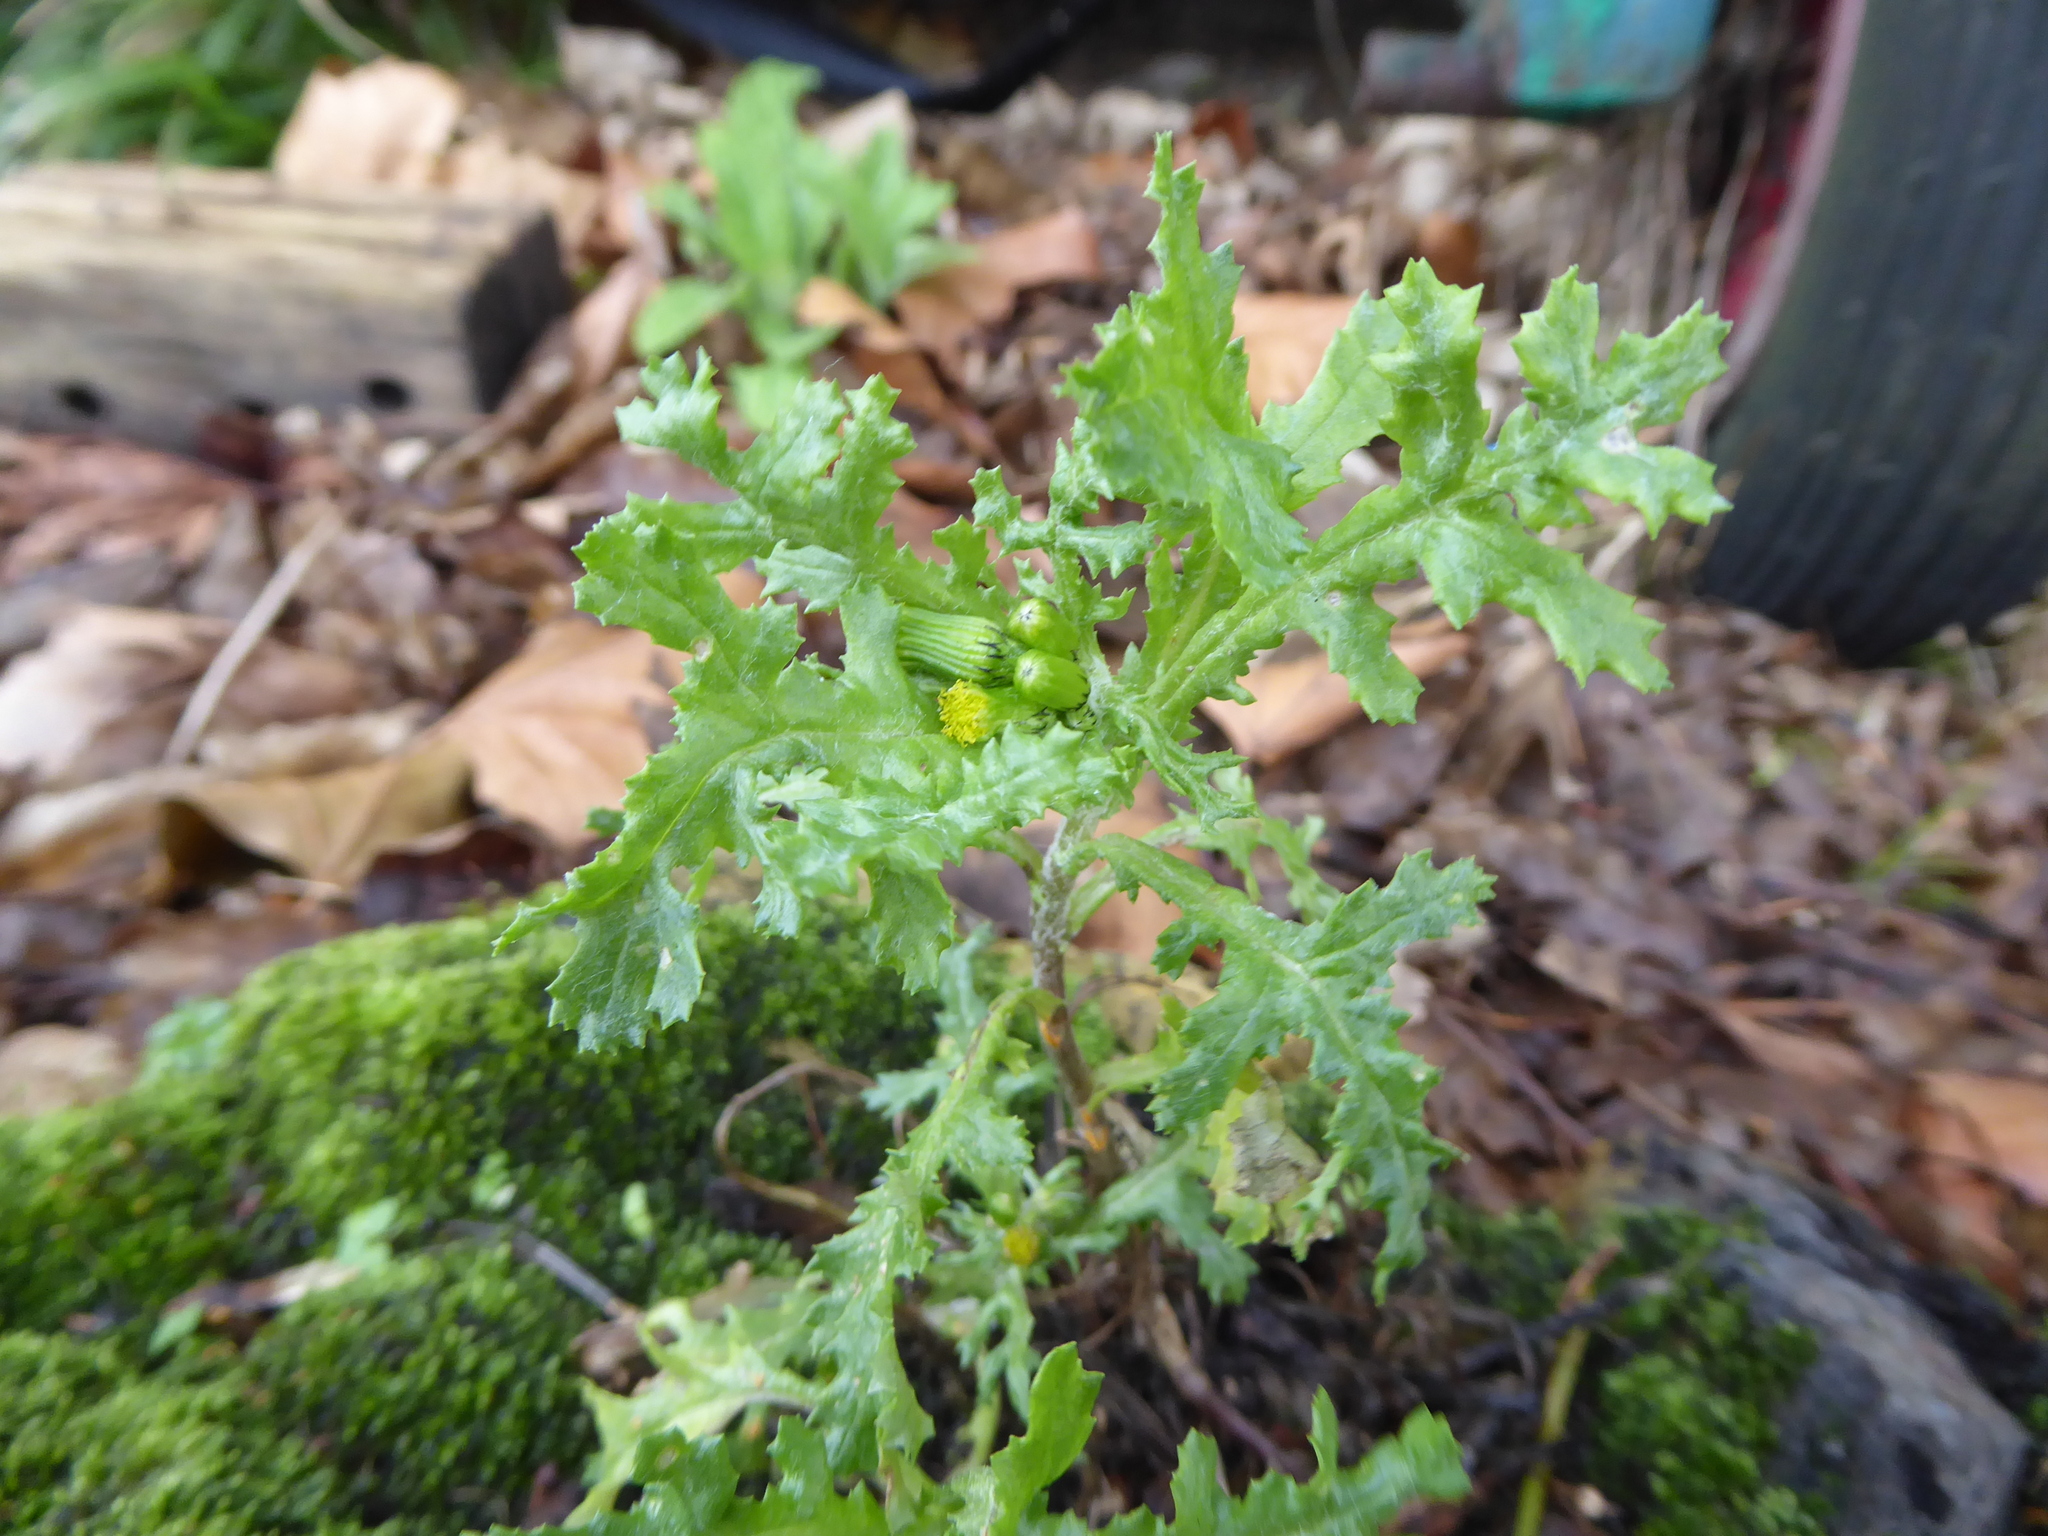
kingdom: Plantae
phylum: Tracheophyta
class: Magnoliopsida
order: Asterales
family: Asteraceae
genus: Senecio
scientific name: Senecio vulgaris
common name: Old-man-in-the-spring
